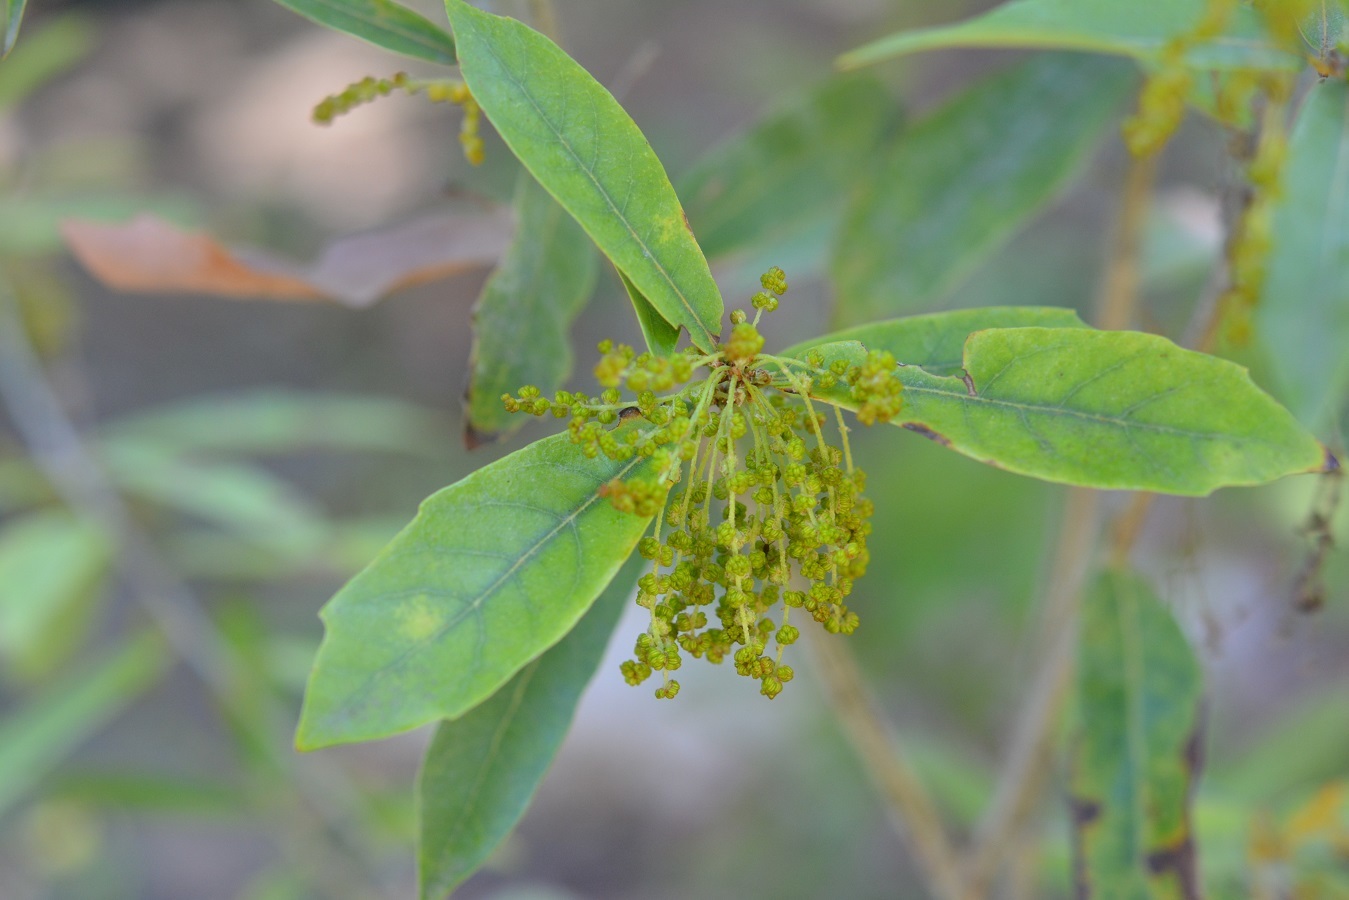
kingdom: Plantae
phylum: Tracheophyta
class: Magnoliopsida
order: Fagales
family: Fagaceae
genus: Quercus
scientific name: Quercus sebifera
